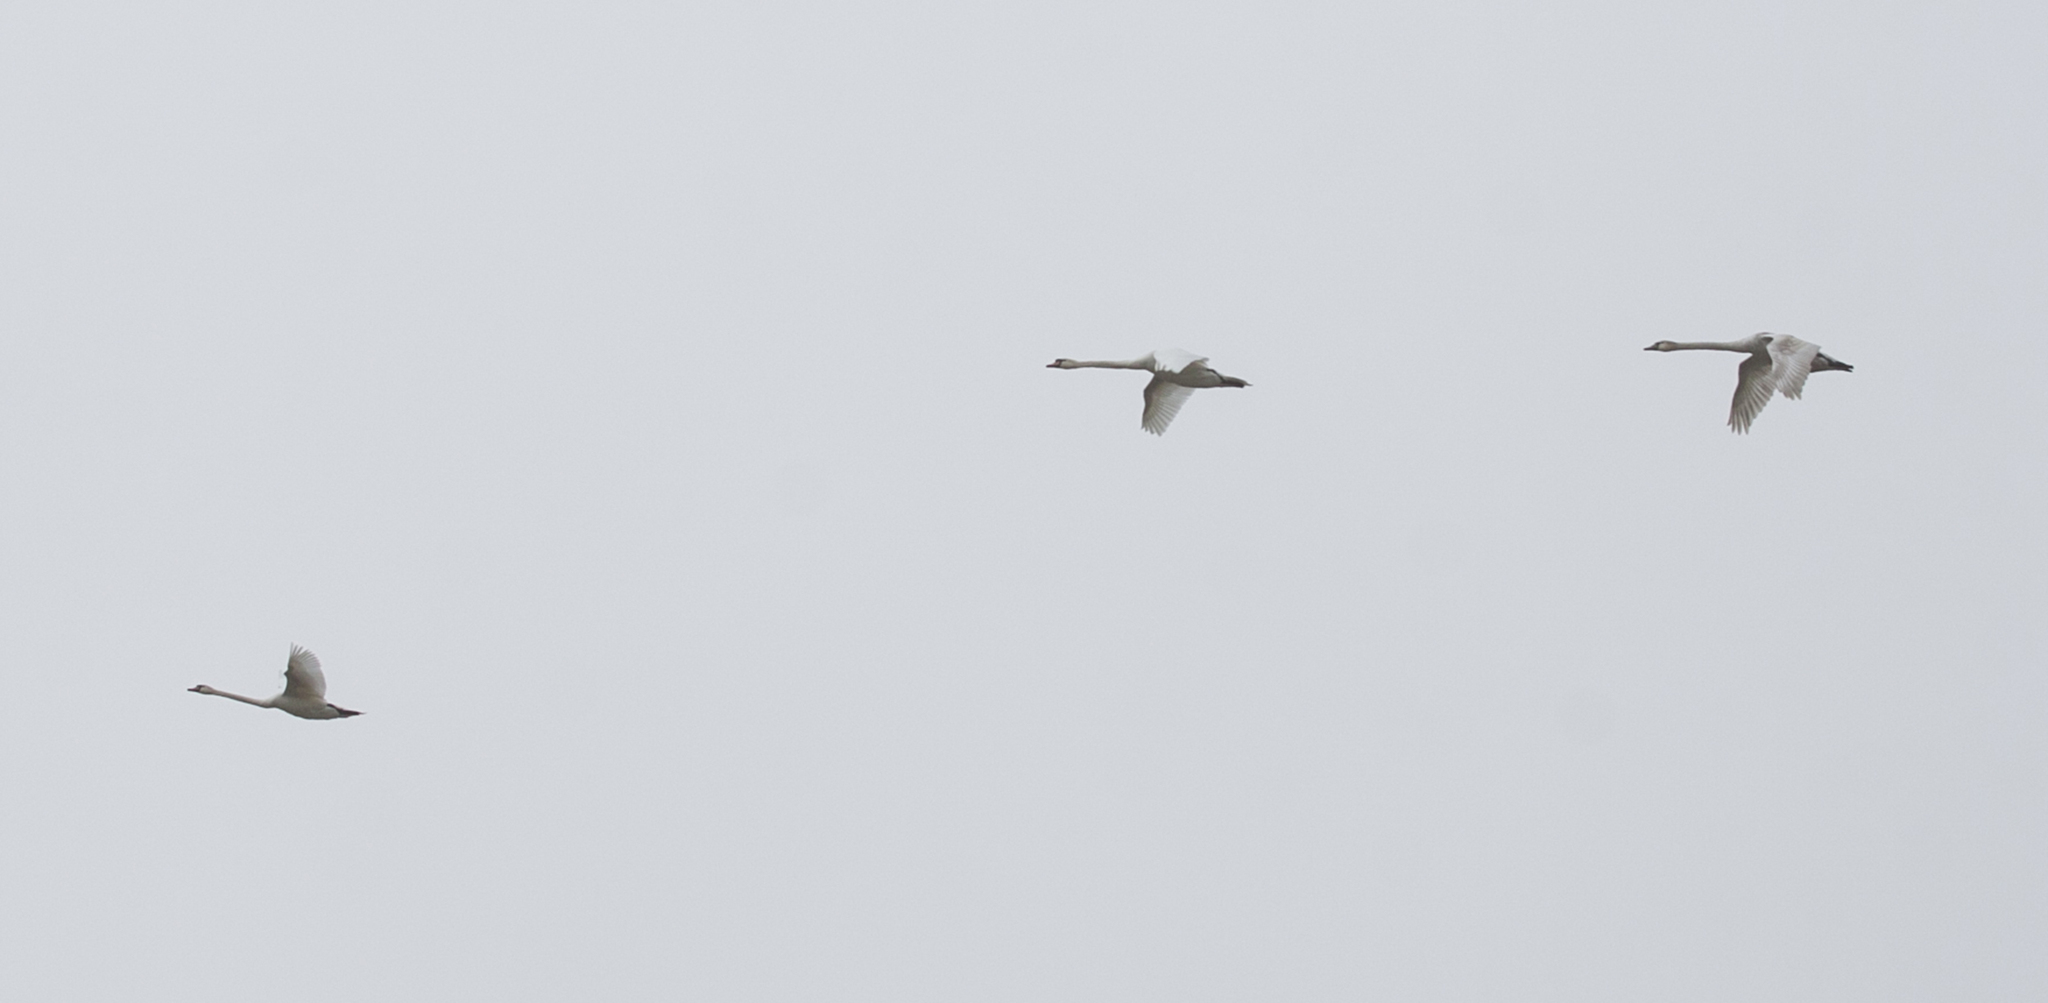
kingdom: Animalia
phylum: Chordata
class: Aves
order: Anseriformes
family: Anatidae
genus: Cygnus
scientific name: Cygnus olor
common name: Mute swan
